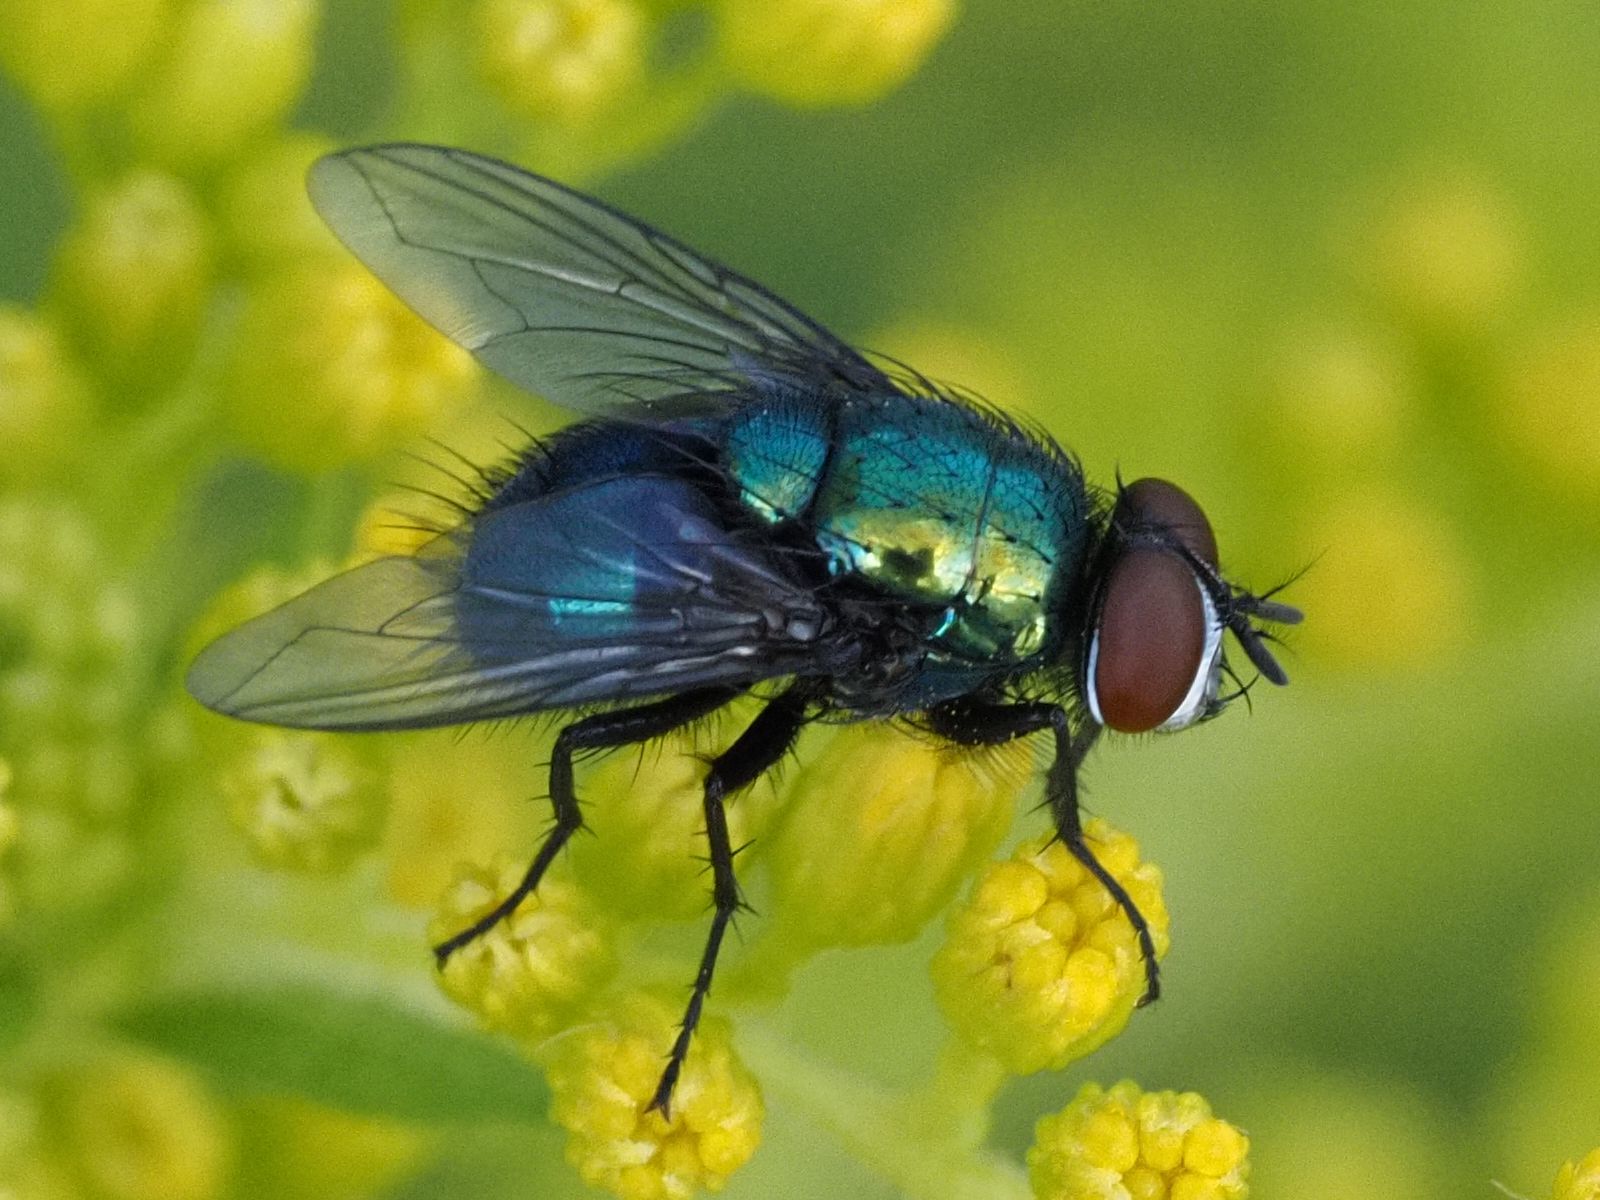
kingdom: Animalia
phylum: Arthropoda
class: Insecta
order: Diptera
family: Calliphoridae
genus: Lucilia
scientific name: Lucilia silvarum
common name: Marsh greenbottle
